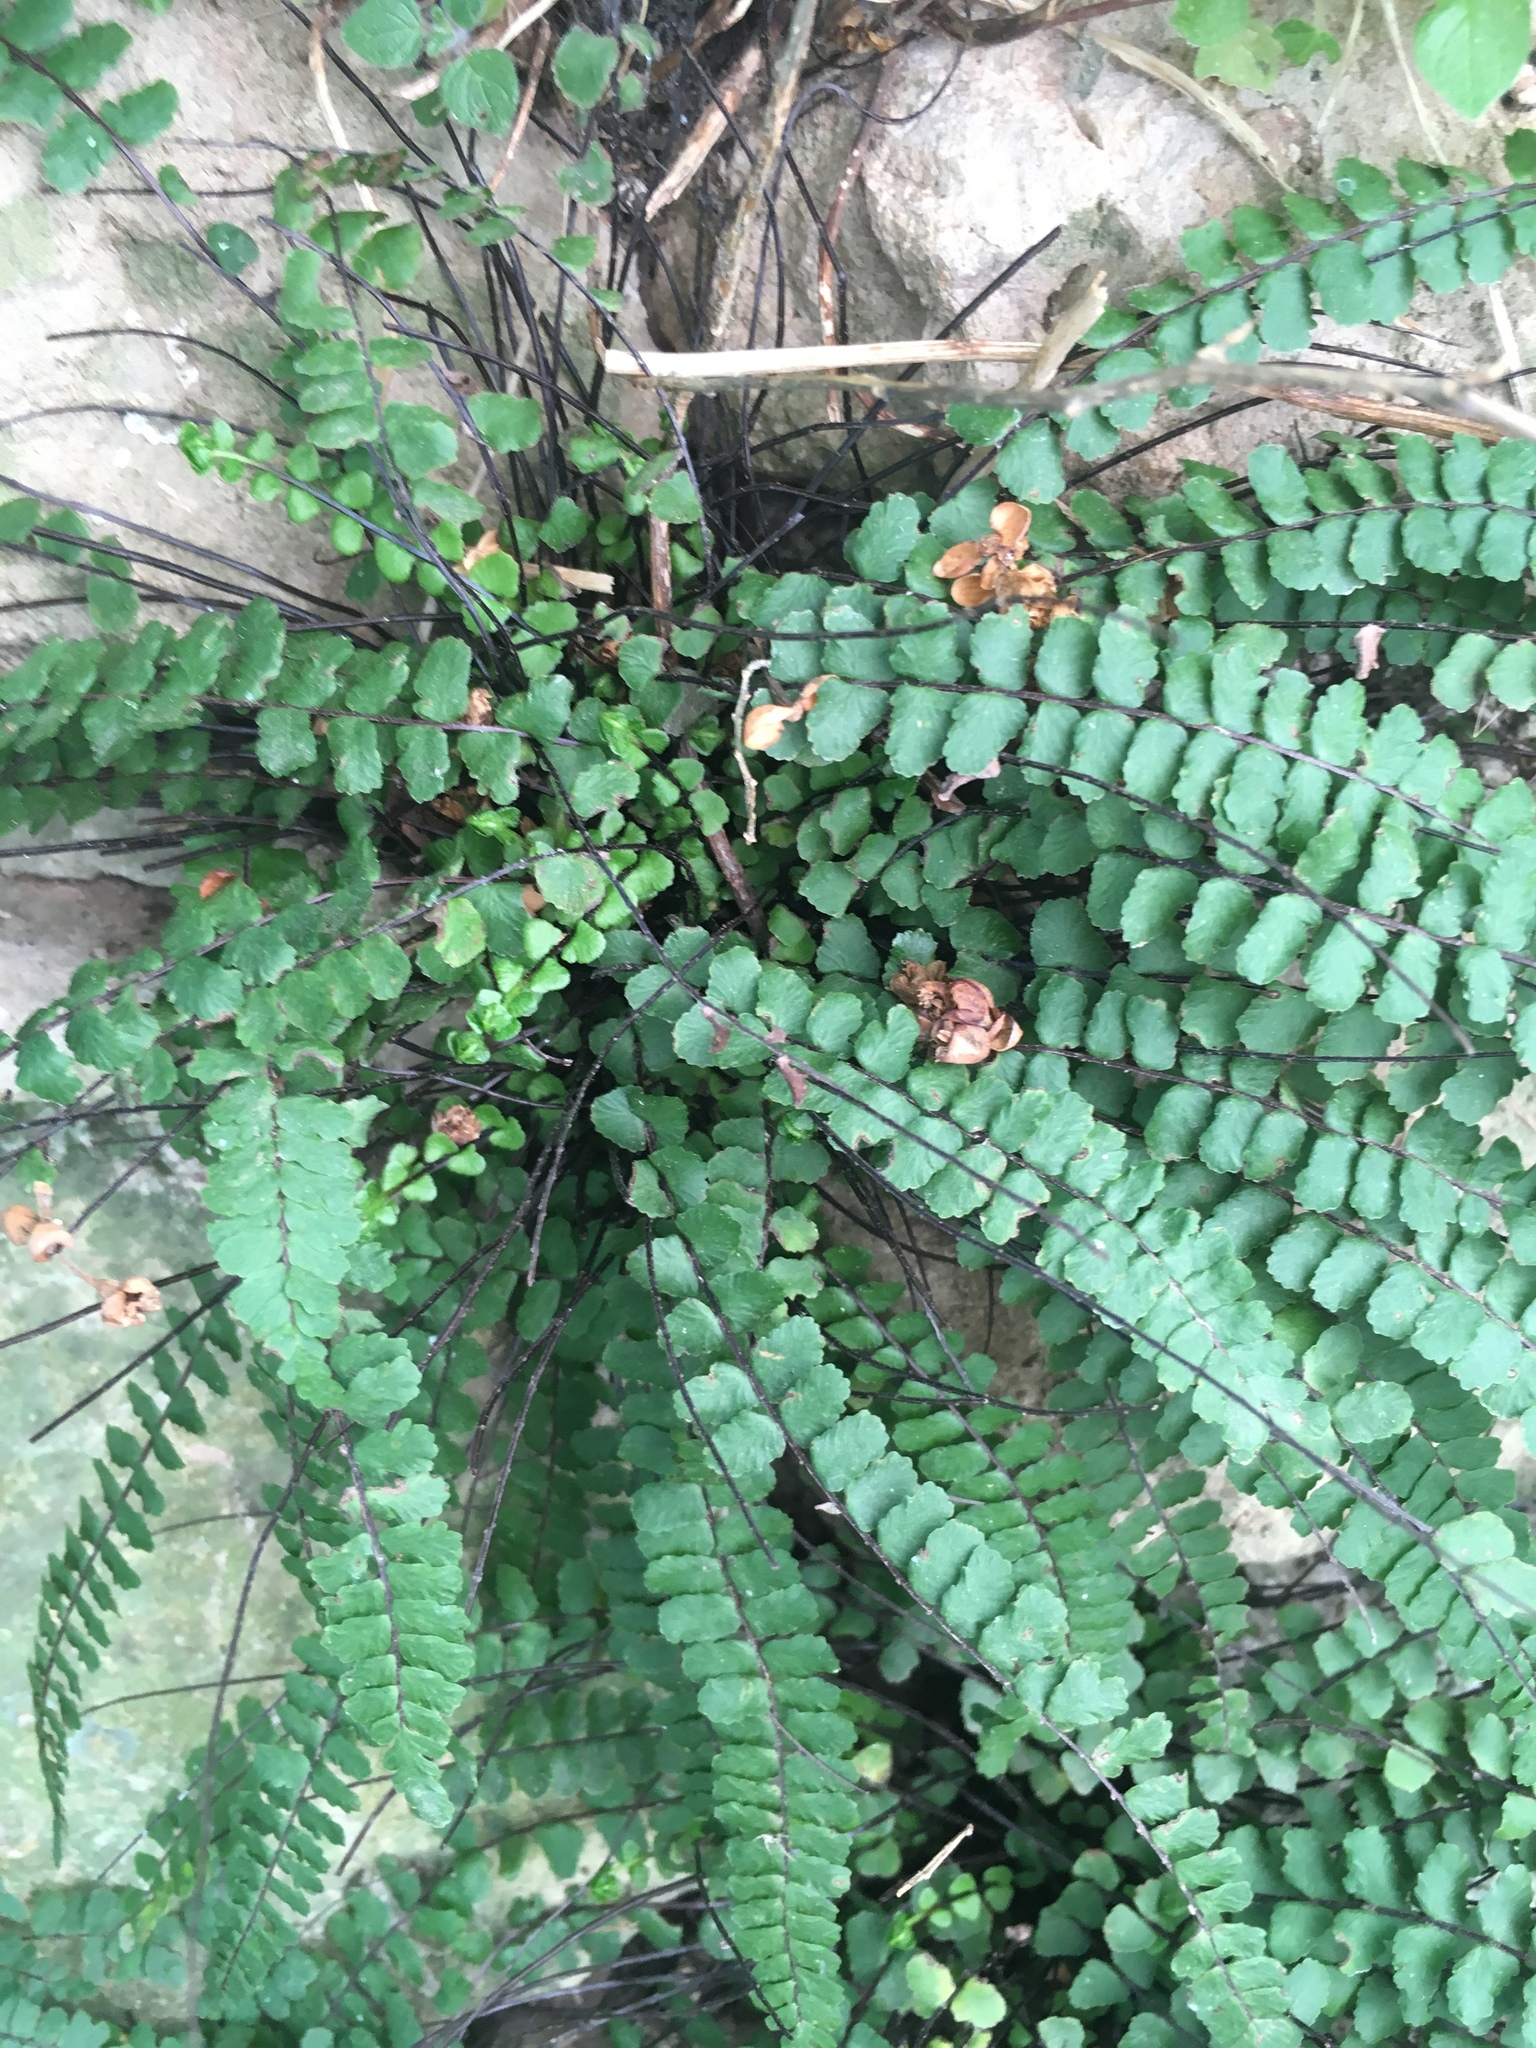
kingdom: Plantae
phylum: Tracheophyta
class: Polypodiopsida
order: Polypodiales
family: Aspleniaceae
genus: Asplenium
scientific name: Asplenium trichomanes
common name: Maidenhair spleenwort
